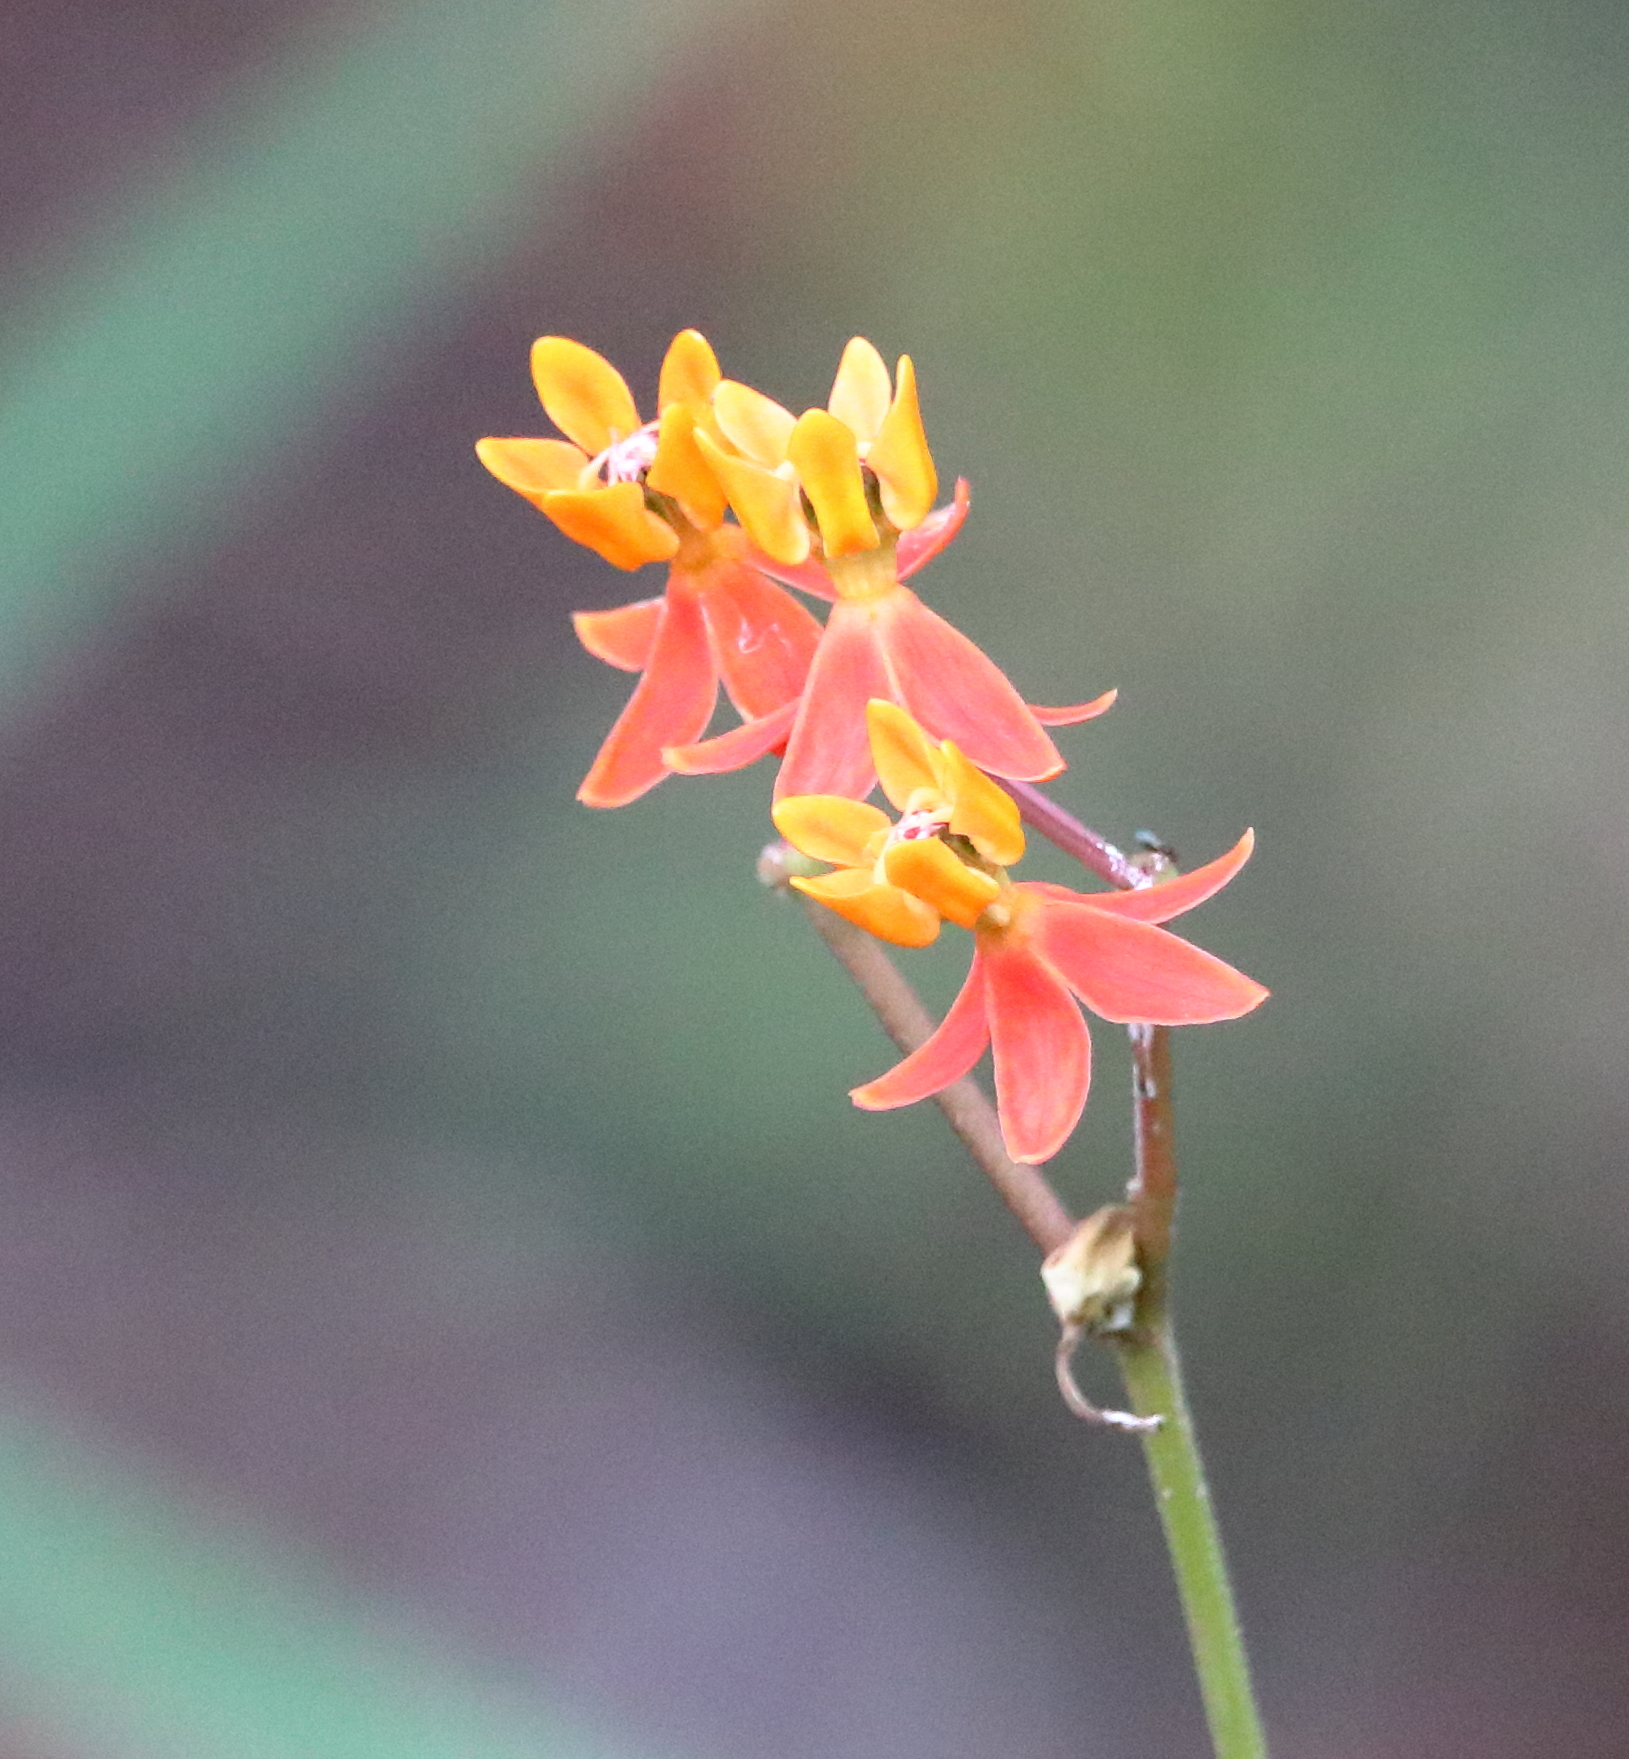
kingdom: Plantae
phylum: Tracheophyta
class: Magnoliopsida
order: Gentianales
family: Apocynaceae
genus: Asclepias
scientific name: Asclepias lanceolata
